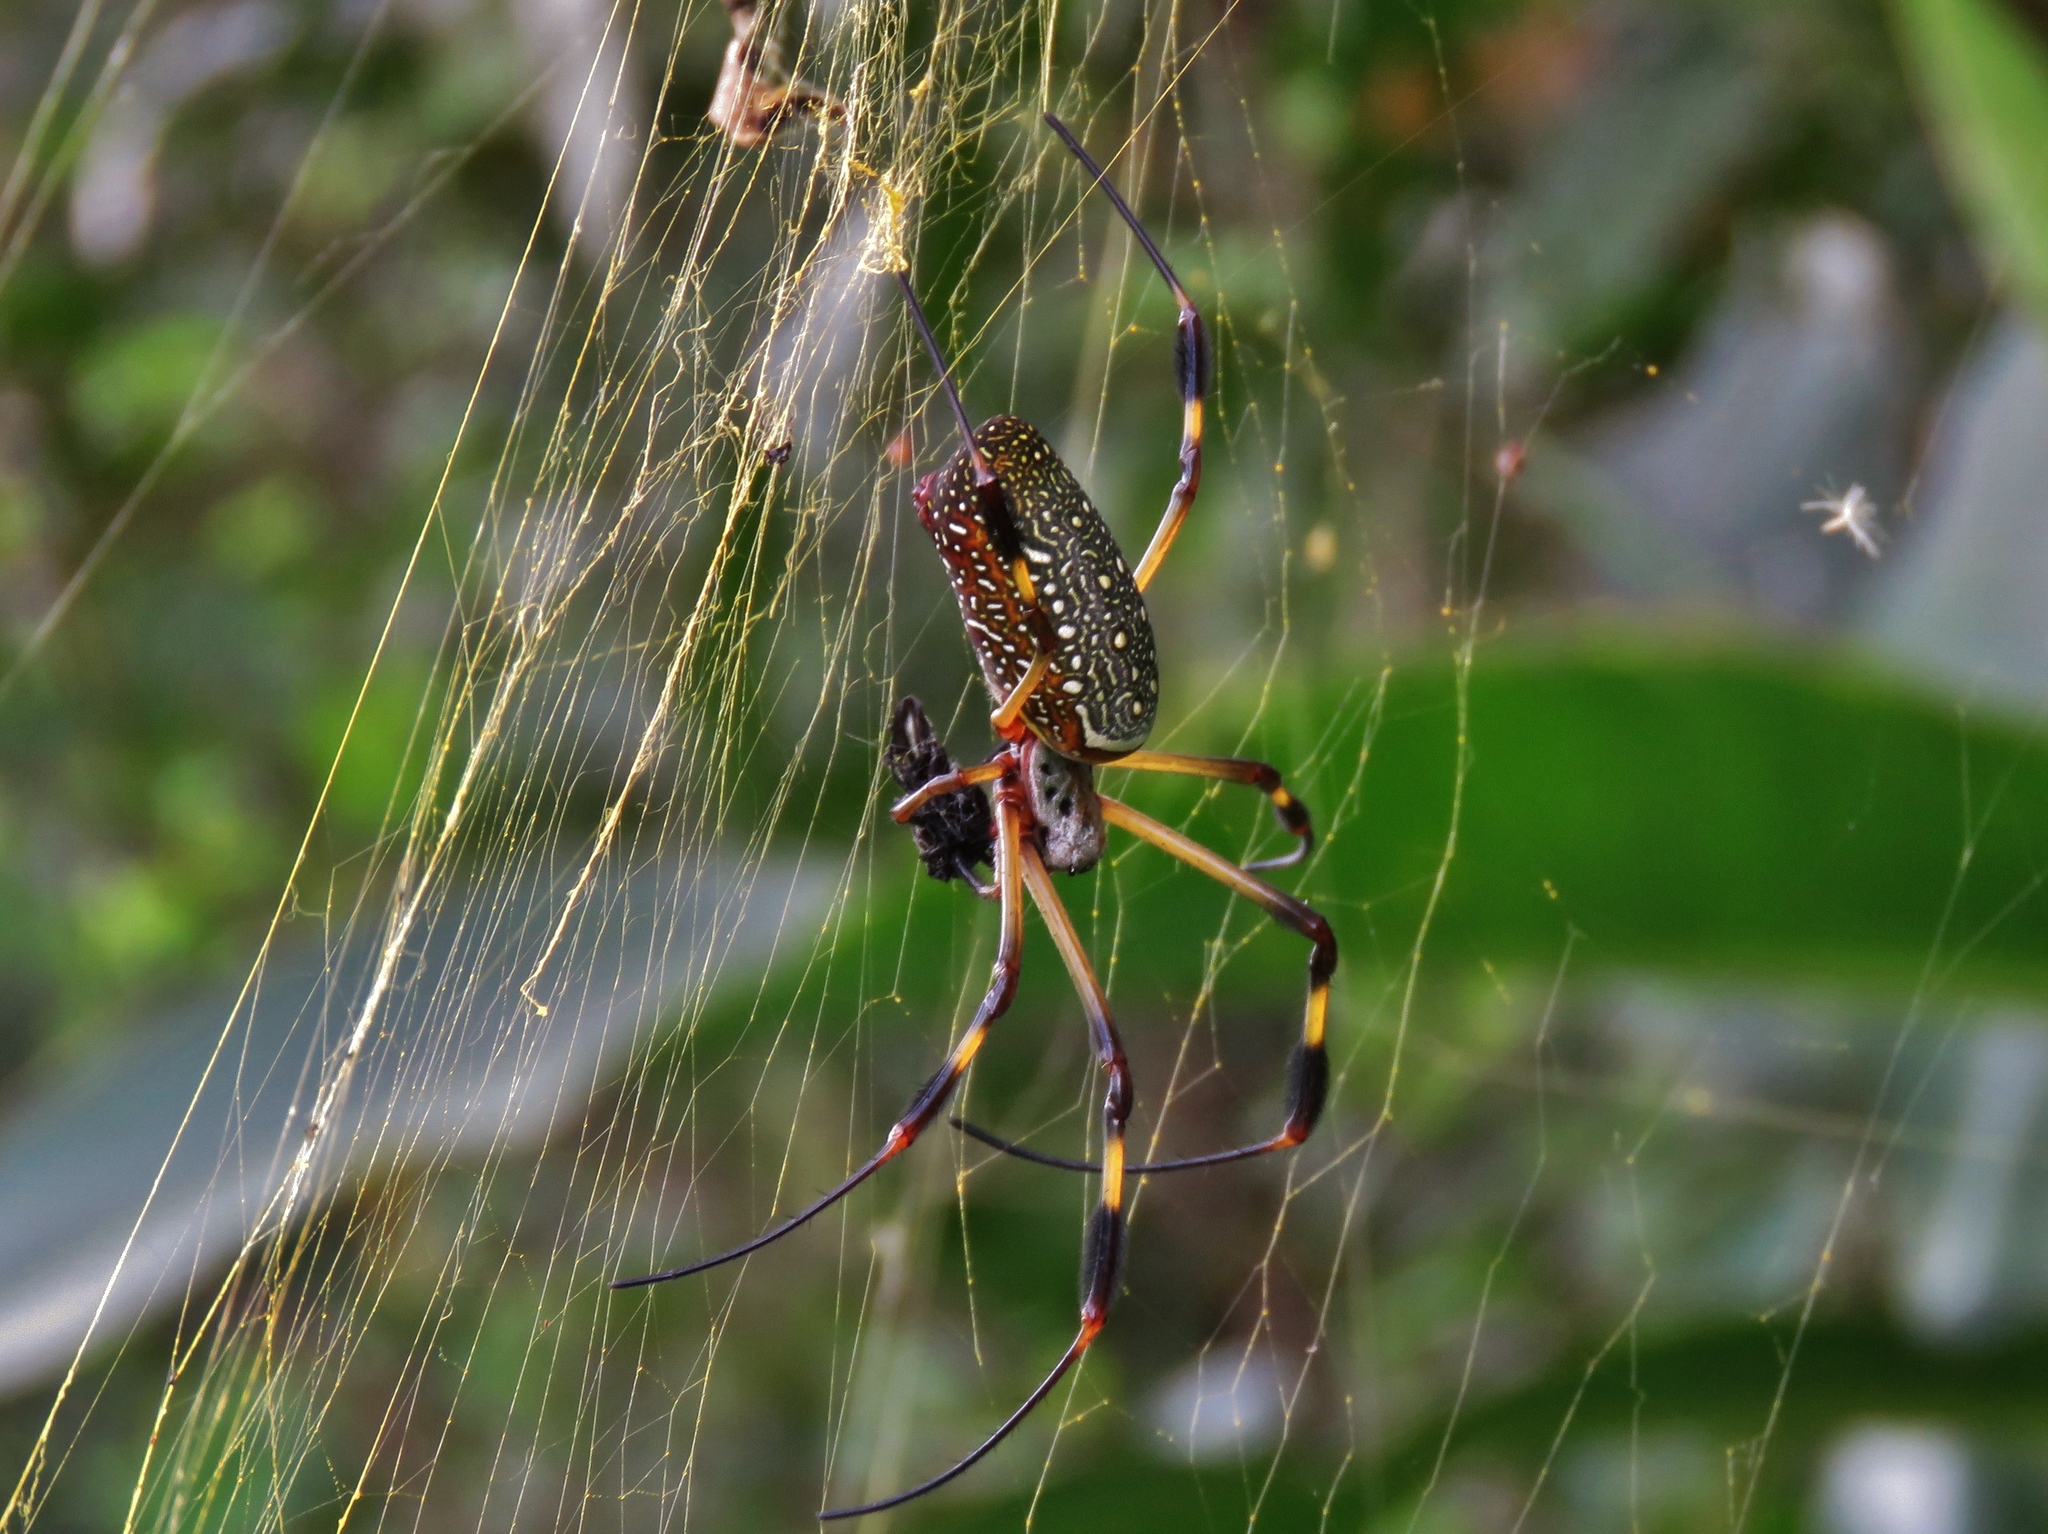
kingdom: Animalia
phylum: Arthropoda
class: Arachnida
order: Araneae
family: Araneidae
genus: Trichonephila
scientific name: Trichonephila clavipes
